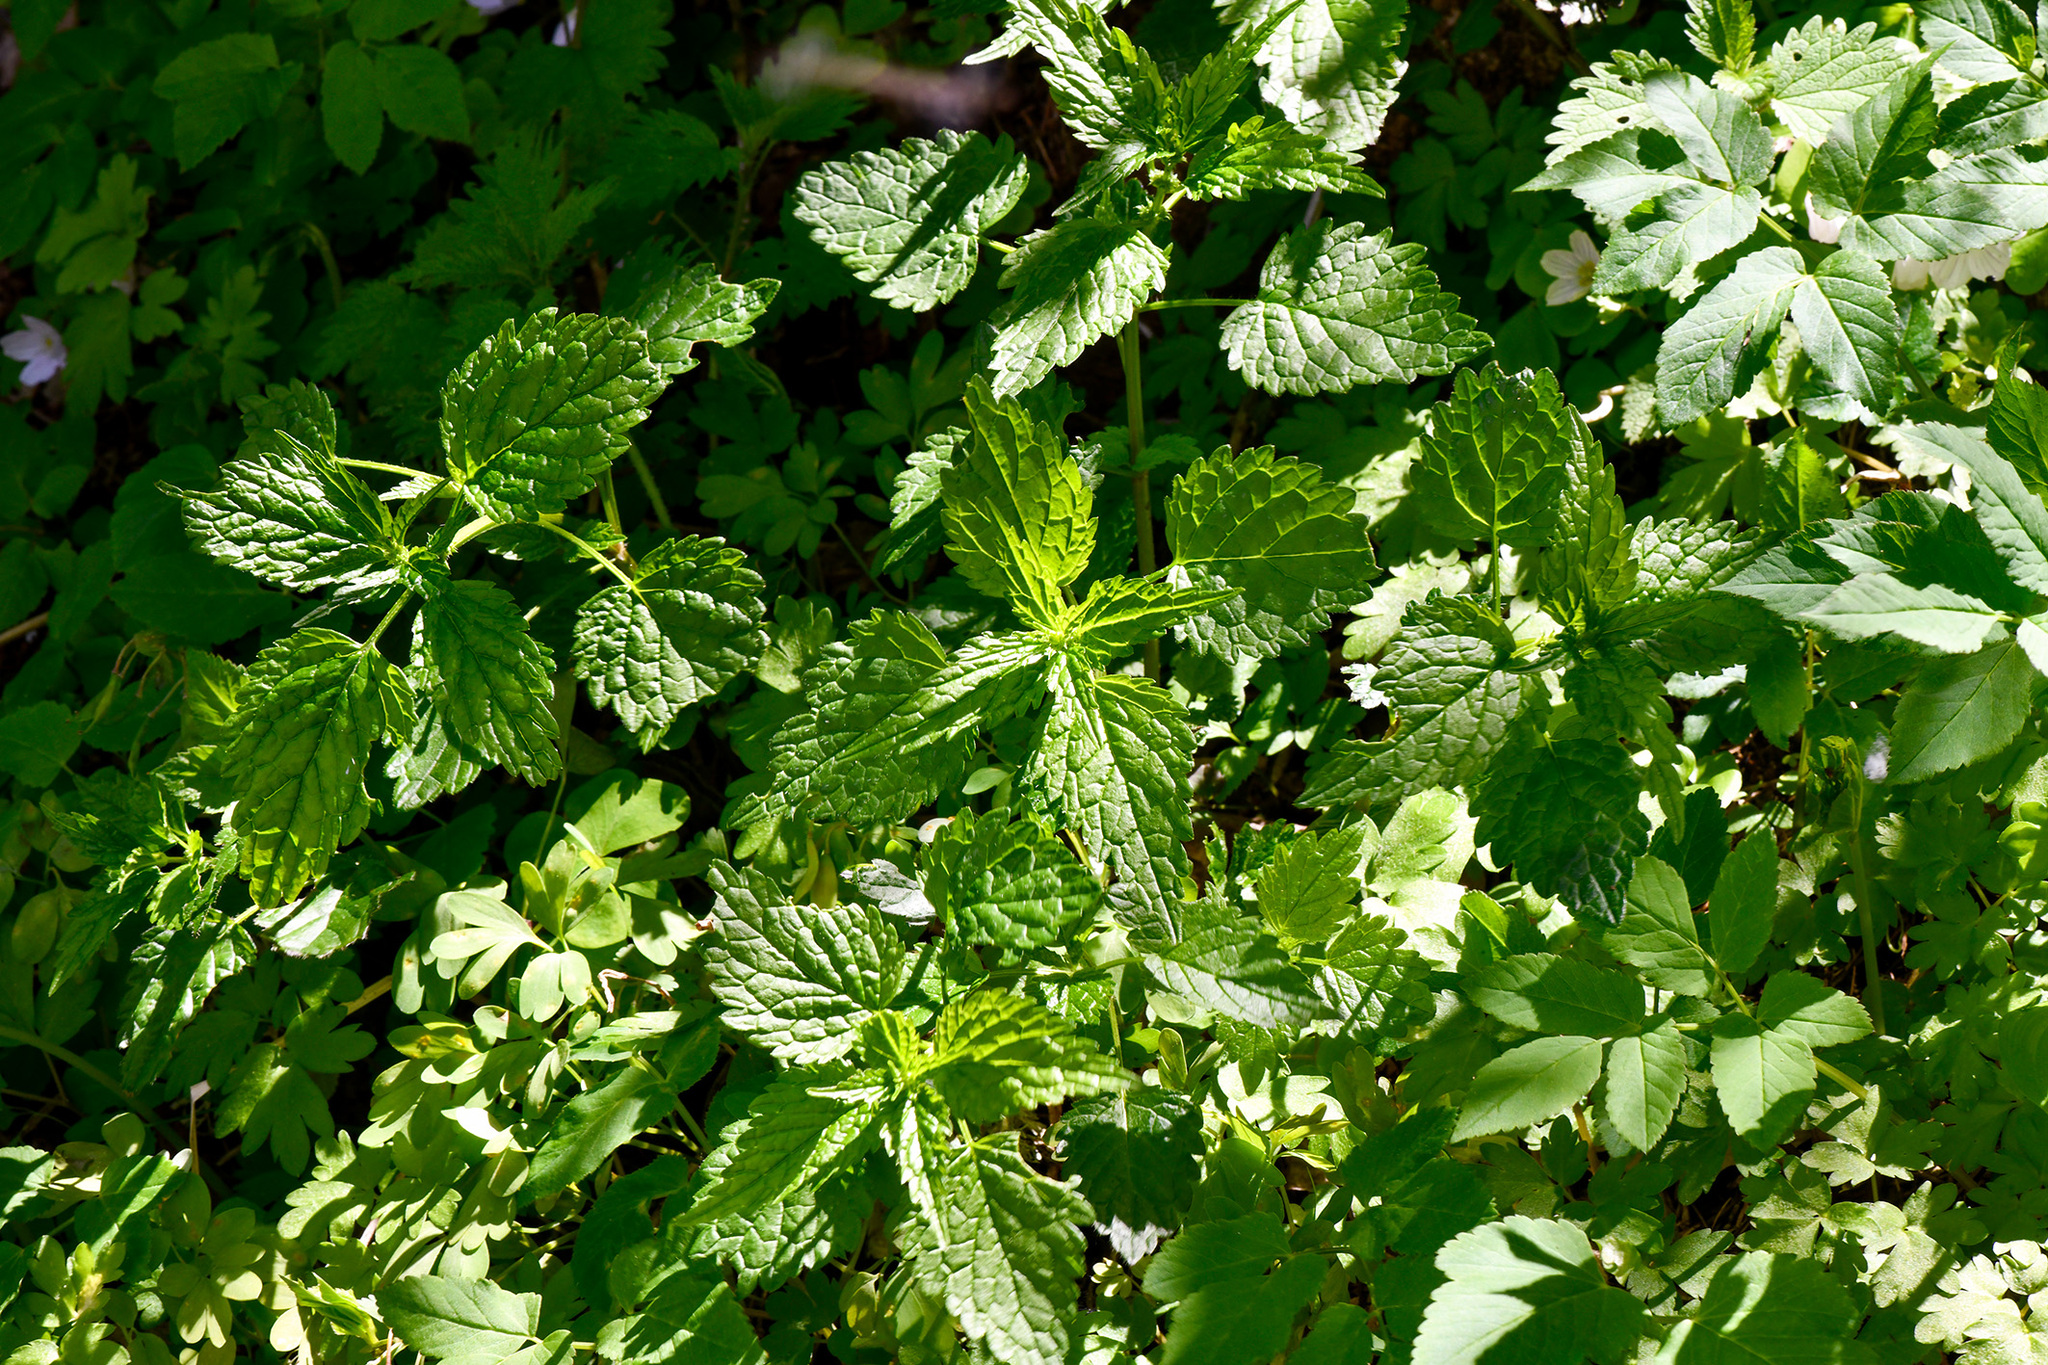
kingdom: Plantae
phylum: Tracheophyta
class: Magnoliopsida
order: Lamiales
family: Lamiaceae
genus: Melissa
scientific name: Melissa officinalis
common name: Balm
